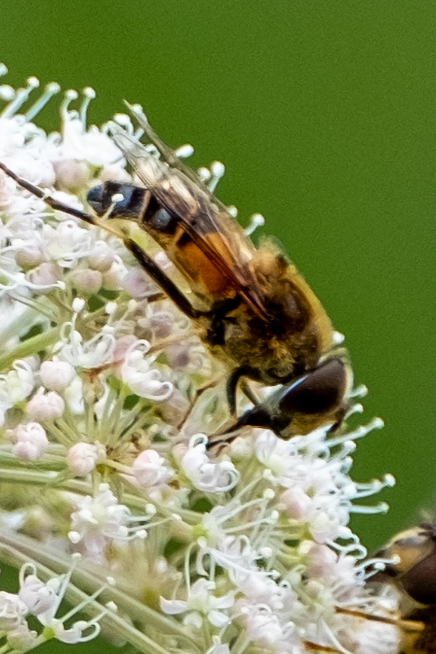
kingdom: Animalia
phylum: Arthropoda
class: Insecta
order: Diptera
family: Syrphidae
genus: Eristalis
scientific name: Eristalis pertinax
